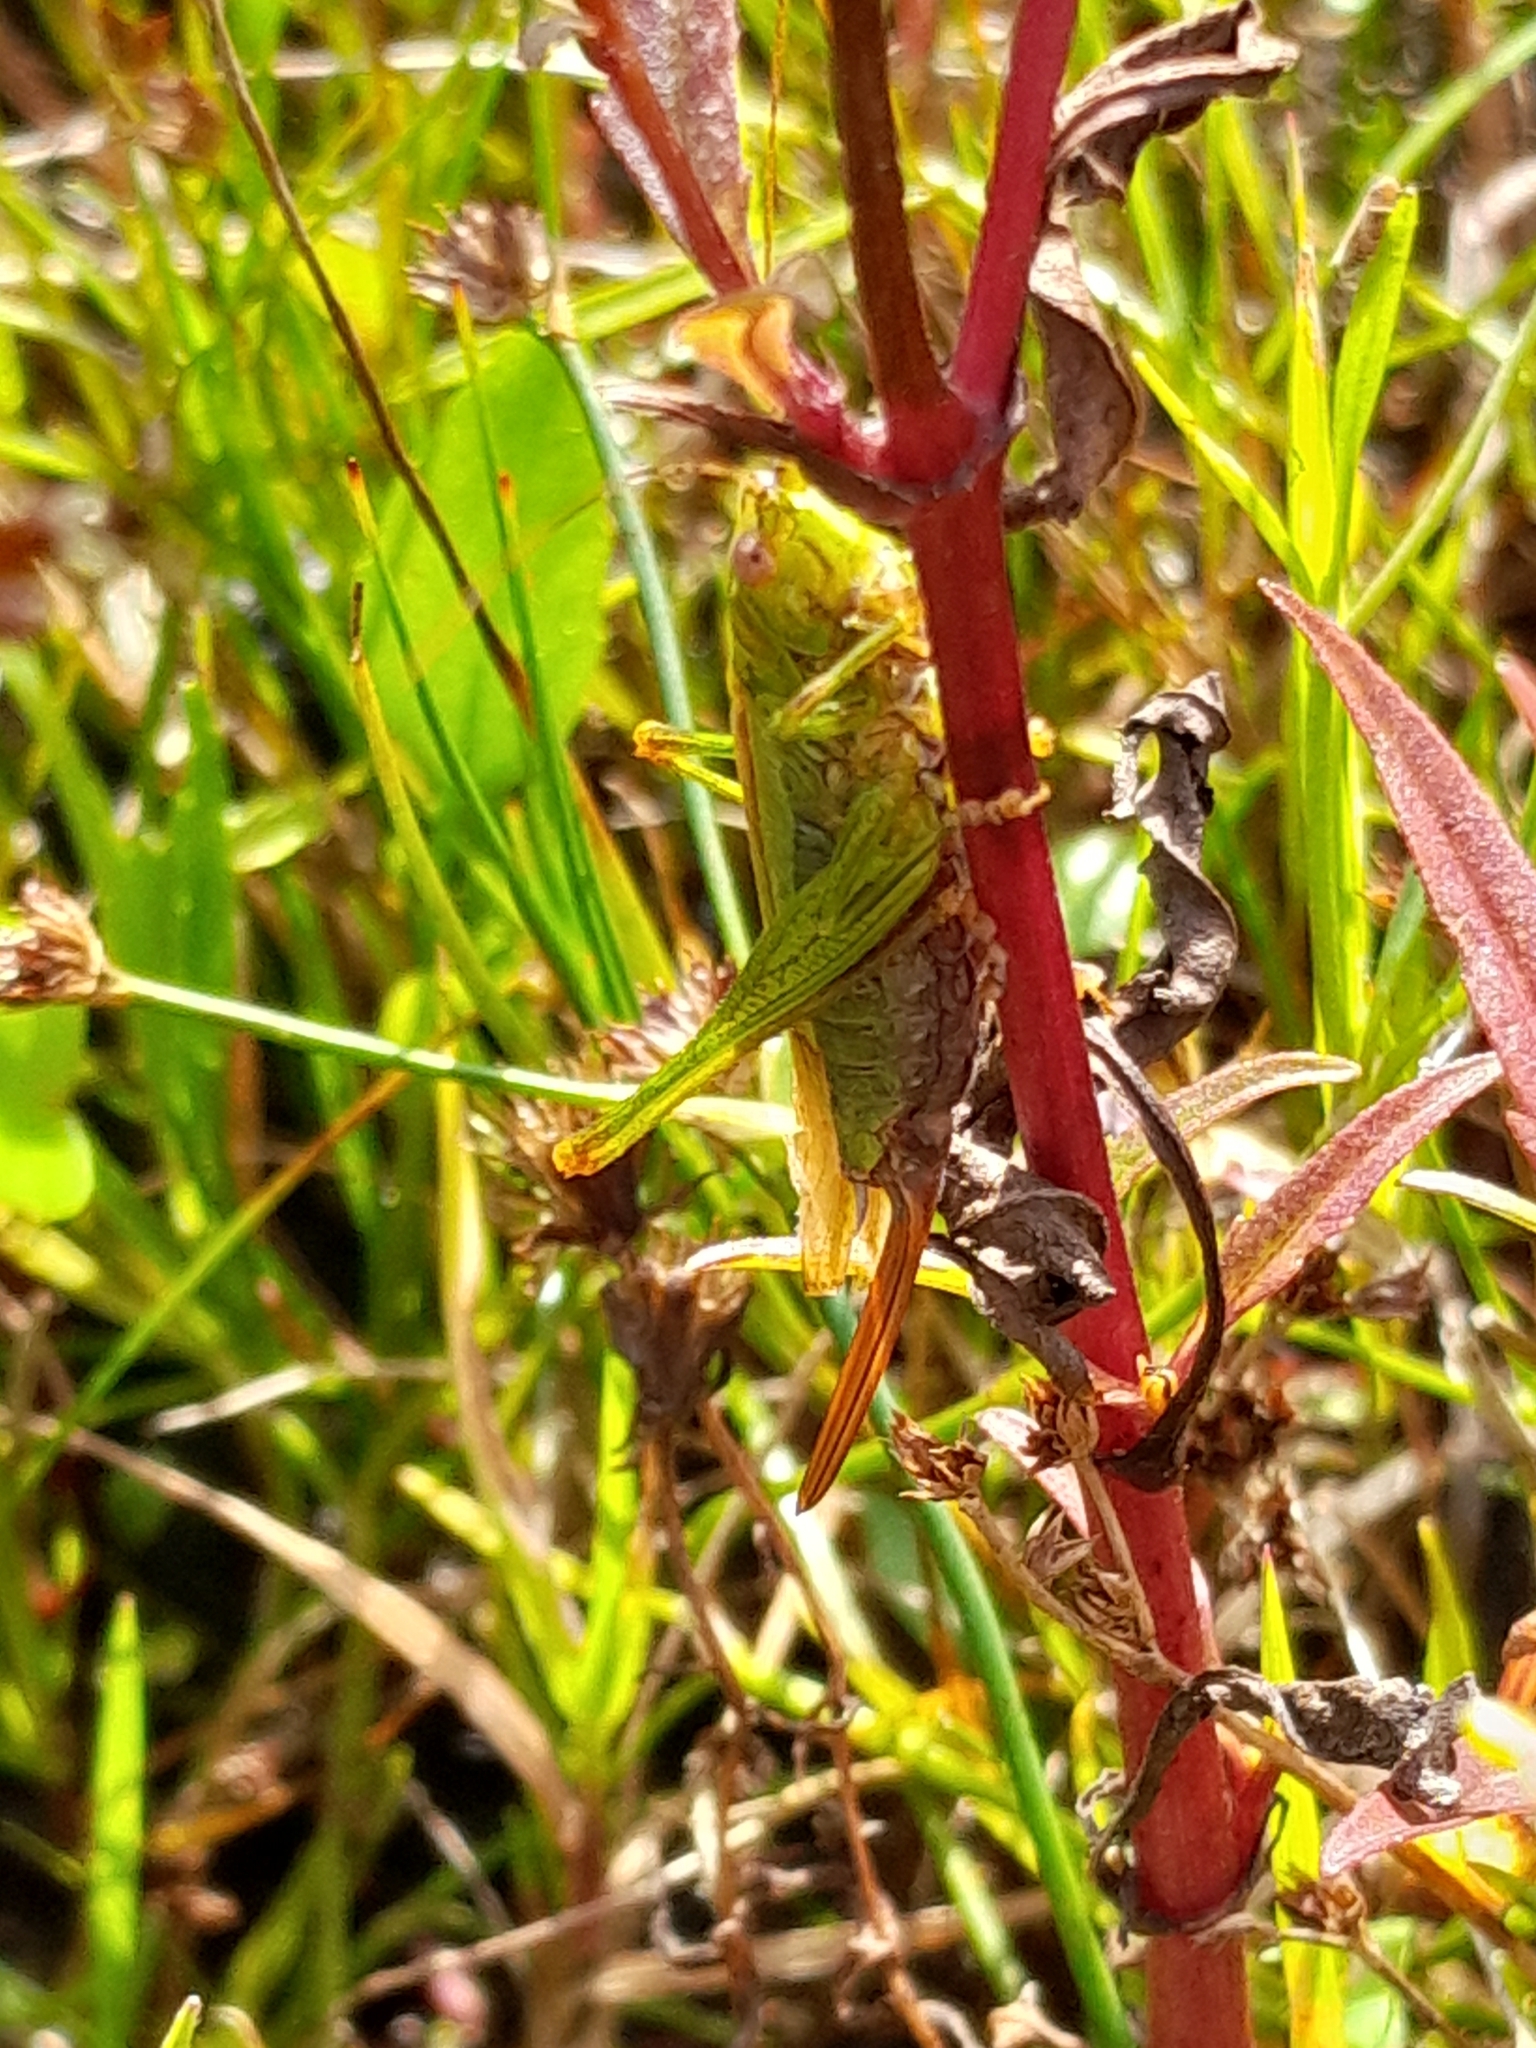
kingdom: Animalia
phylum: Arthropoda
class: Insecta
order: Orthoptera
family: Tettigoniidae
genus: Conocephalus
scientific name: Conocephalus fuscus
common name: Long-winged conehead
